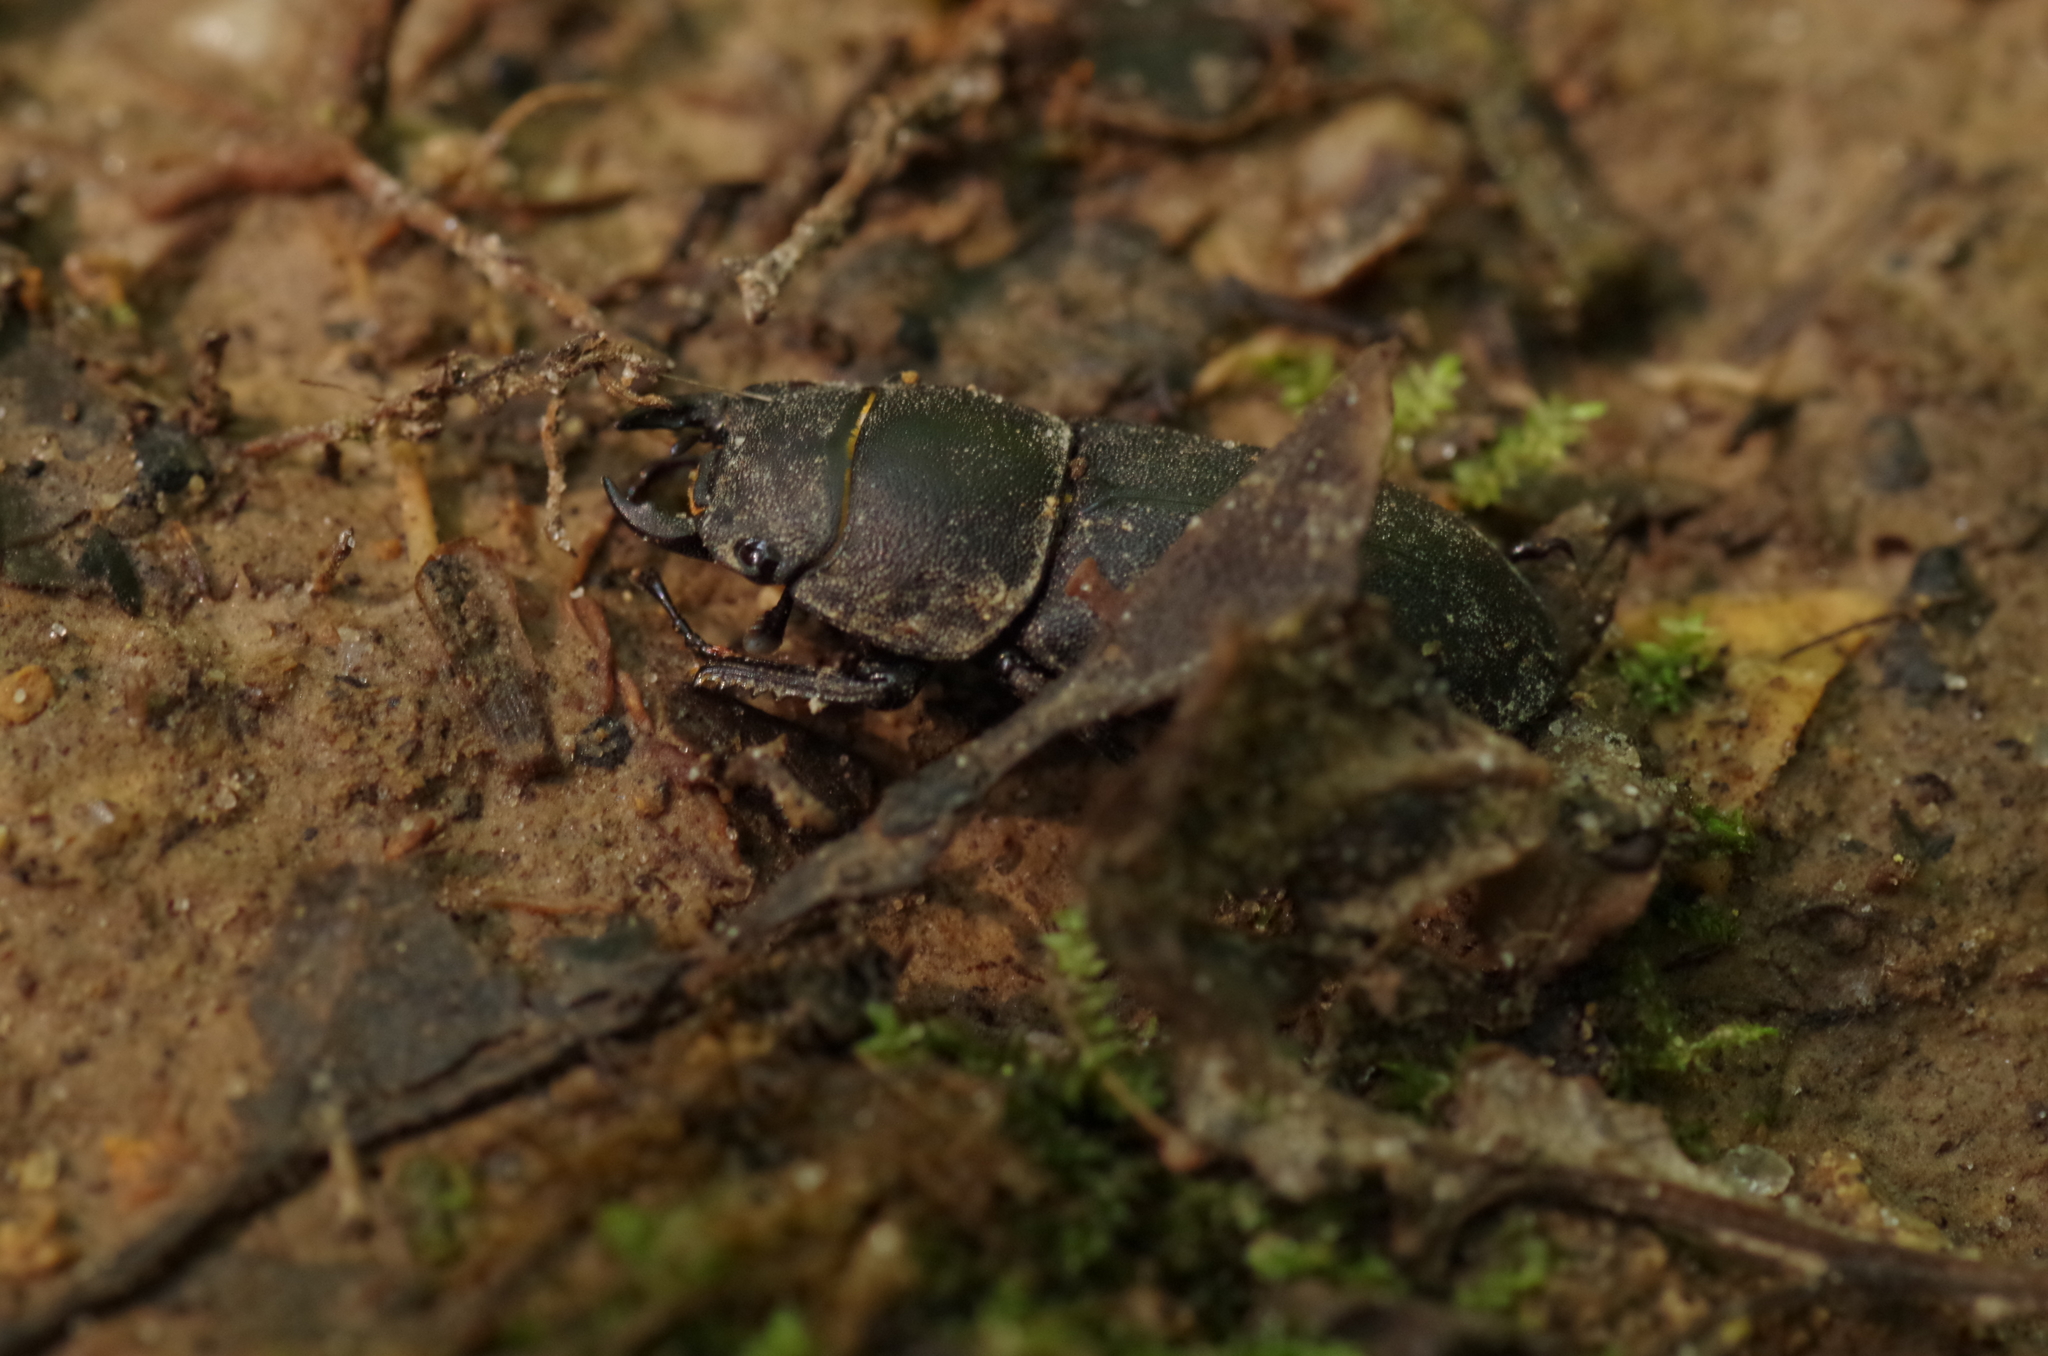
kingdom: Animalia
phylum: Arthropoda
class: Insecta
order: Coleoptera
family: Lucanidae
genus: Dorcus
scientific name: Dorcus parallelipipedus
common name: Lesser stag beetle
